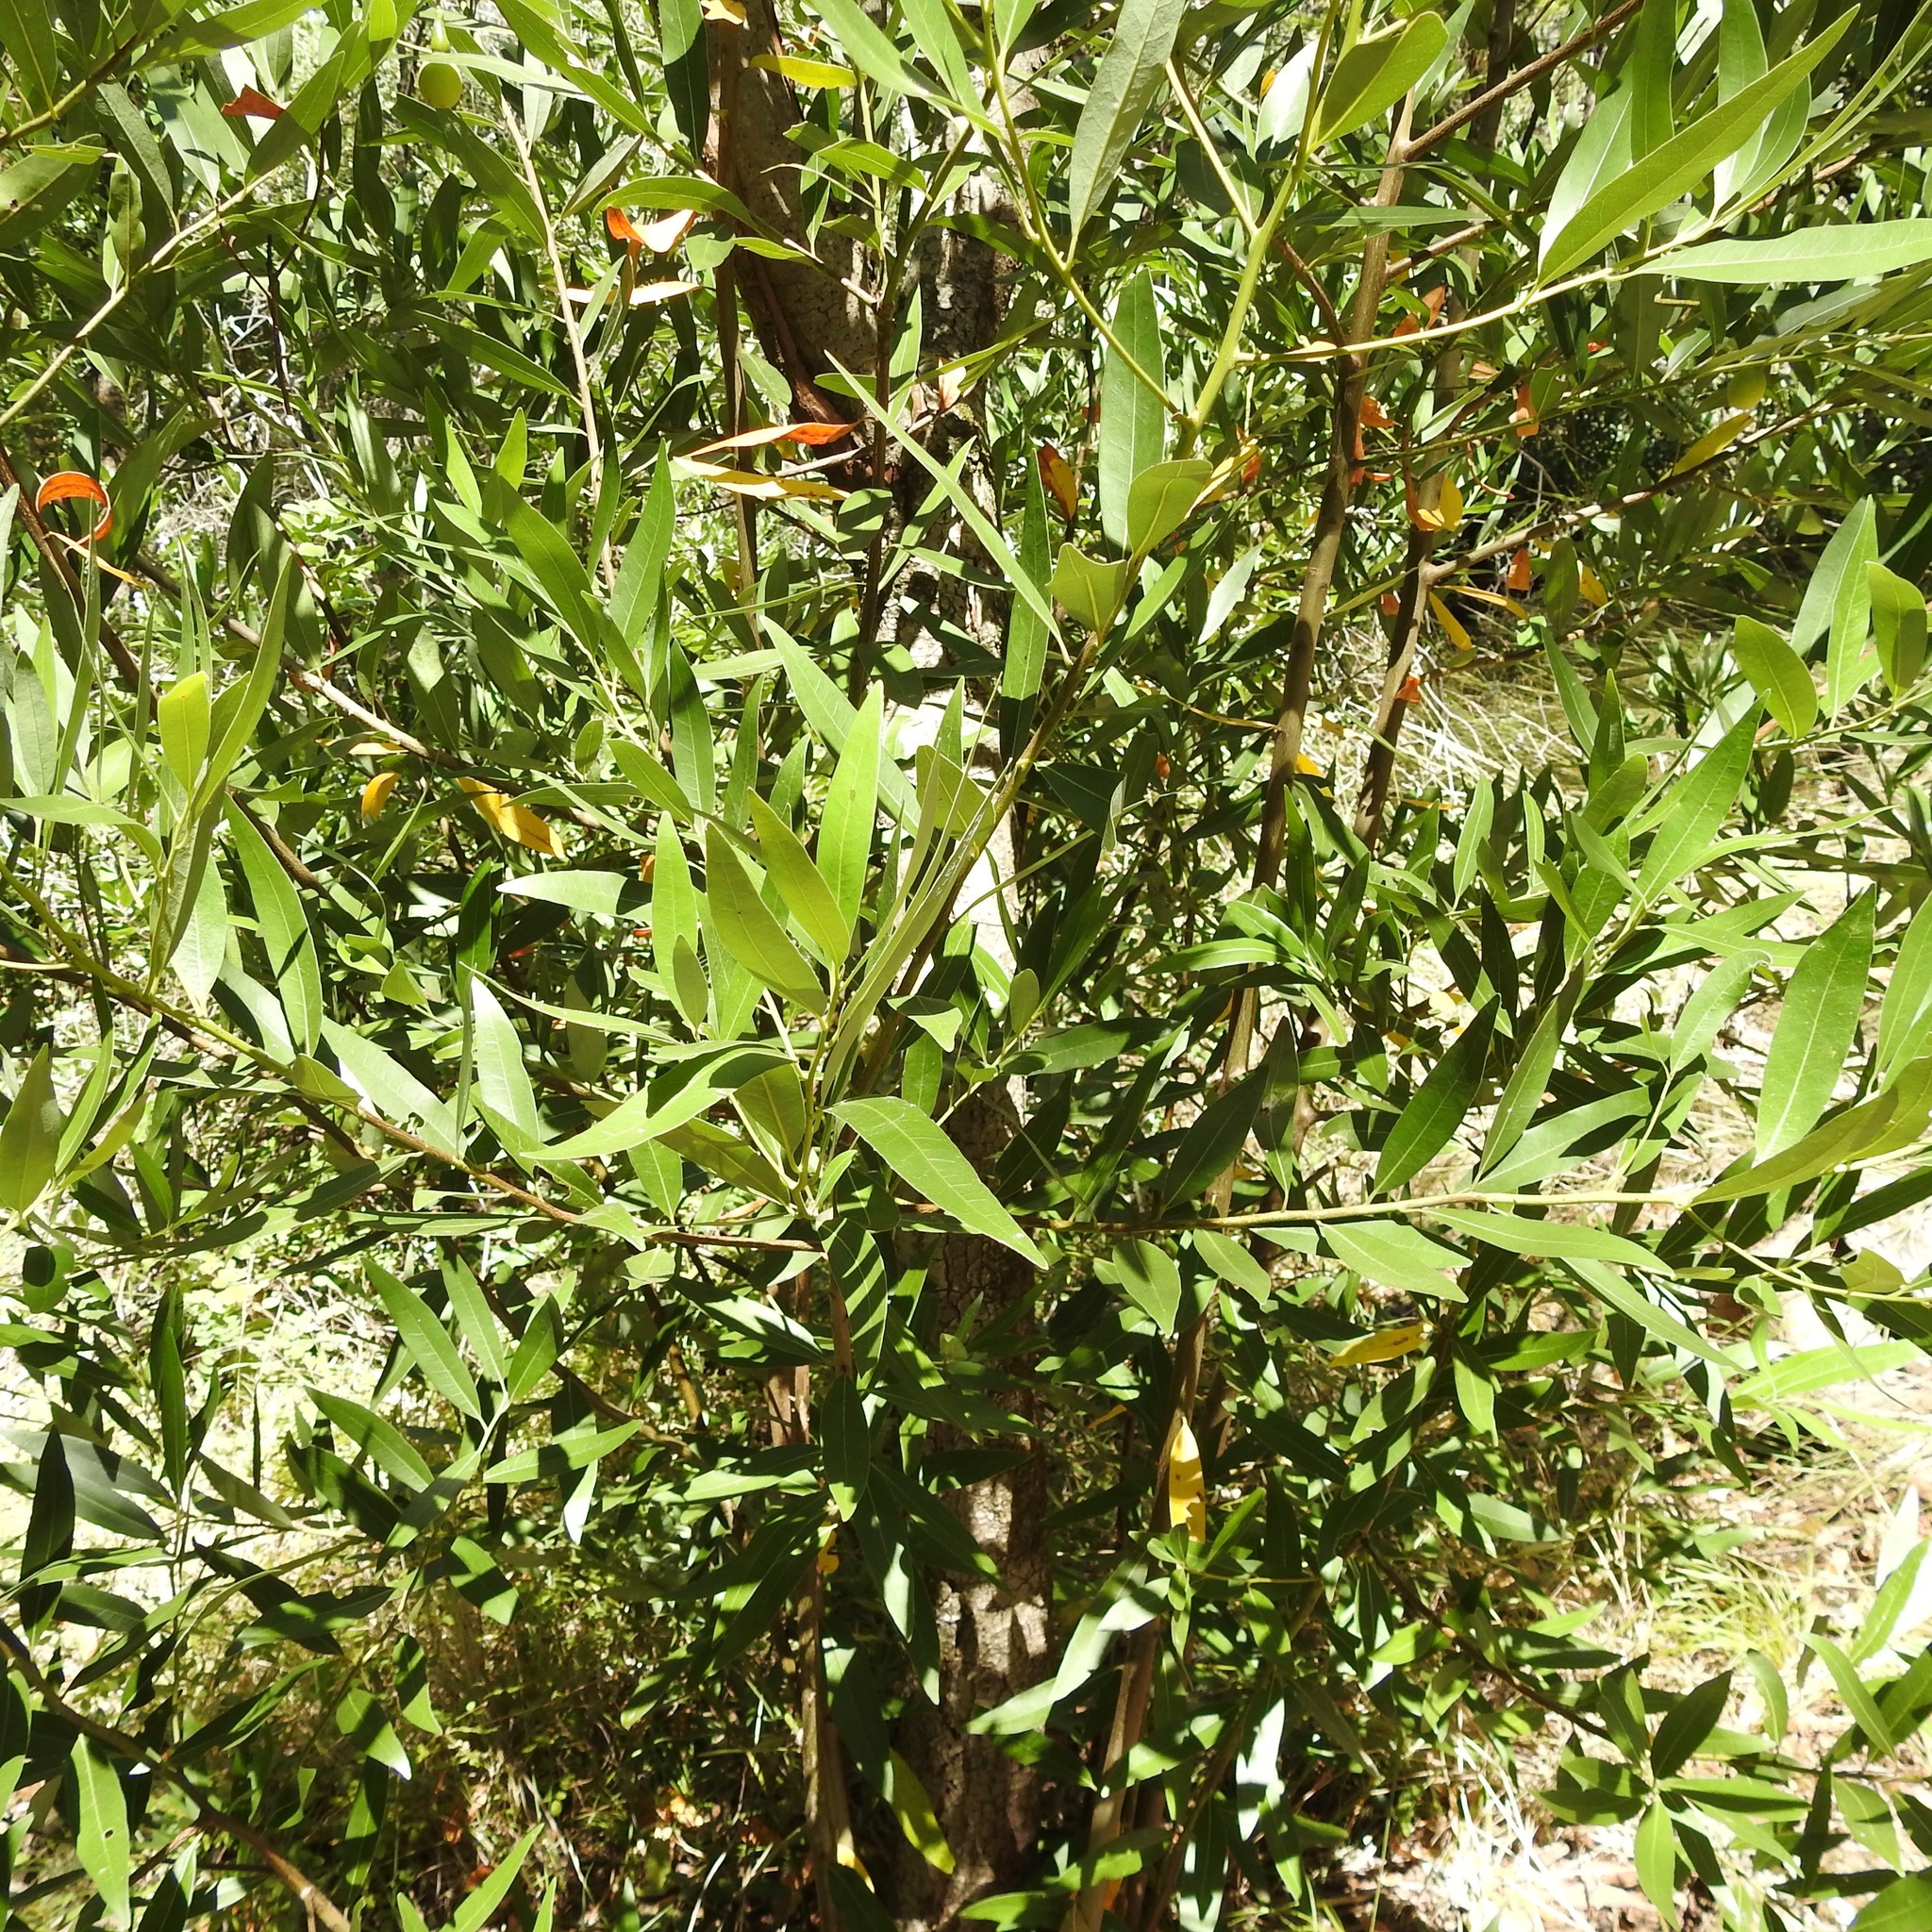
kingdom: Plantae
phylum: Tracheophyta
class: Magnoliopsida
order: Laurales
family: Lauraceae
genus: Umbellularia
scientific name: Umbellularia californica
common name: California bay
